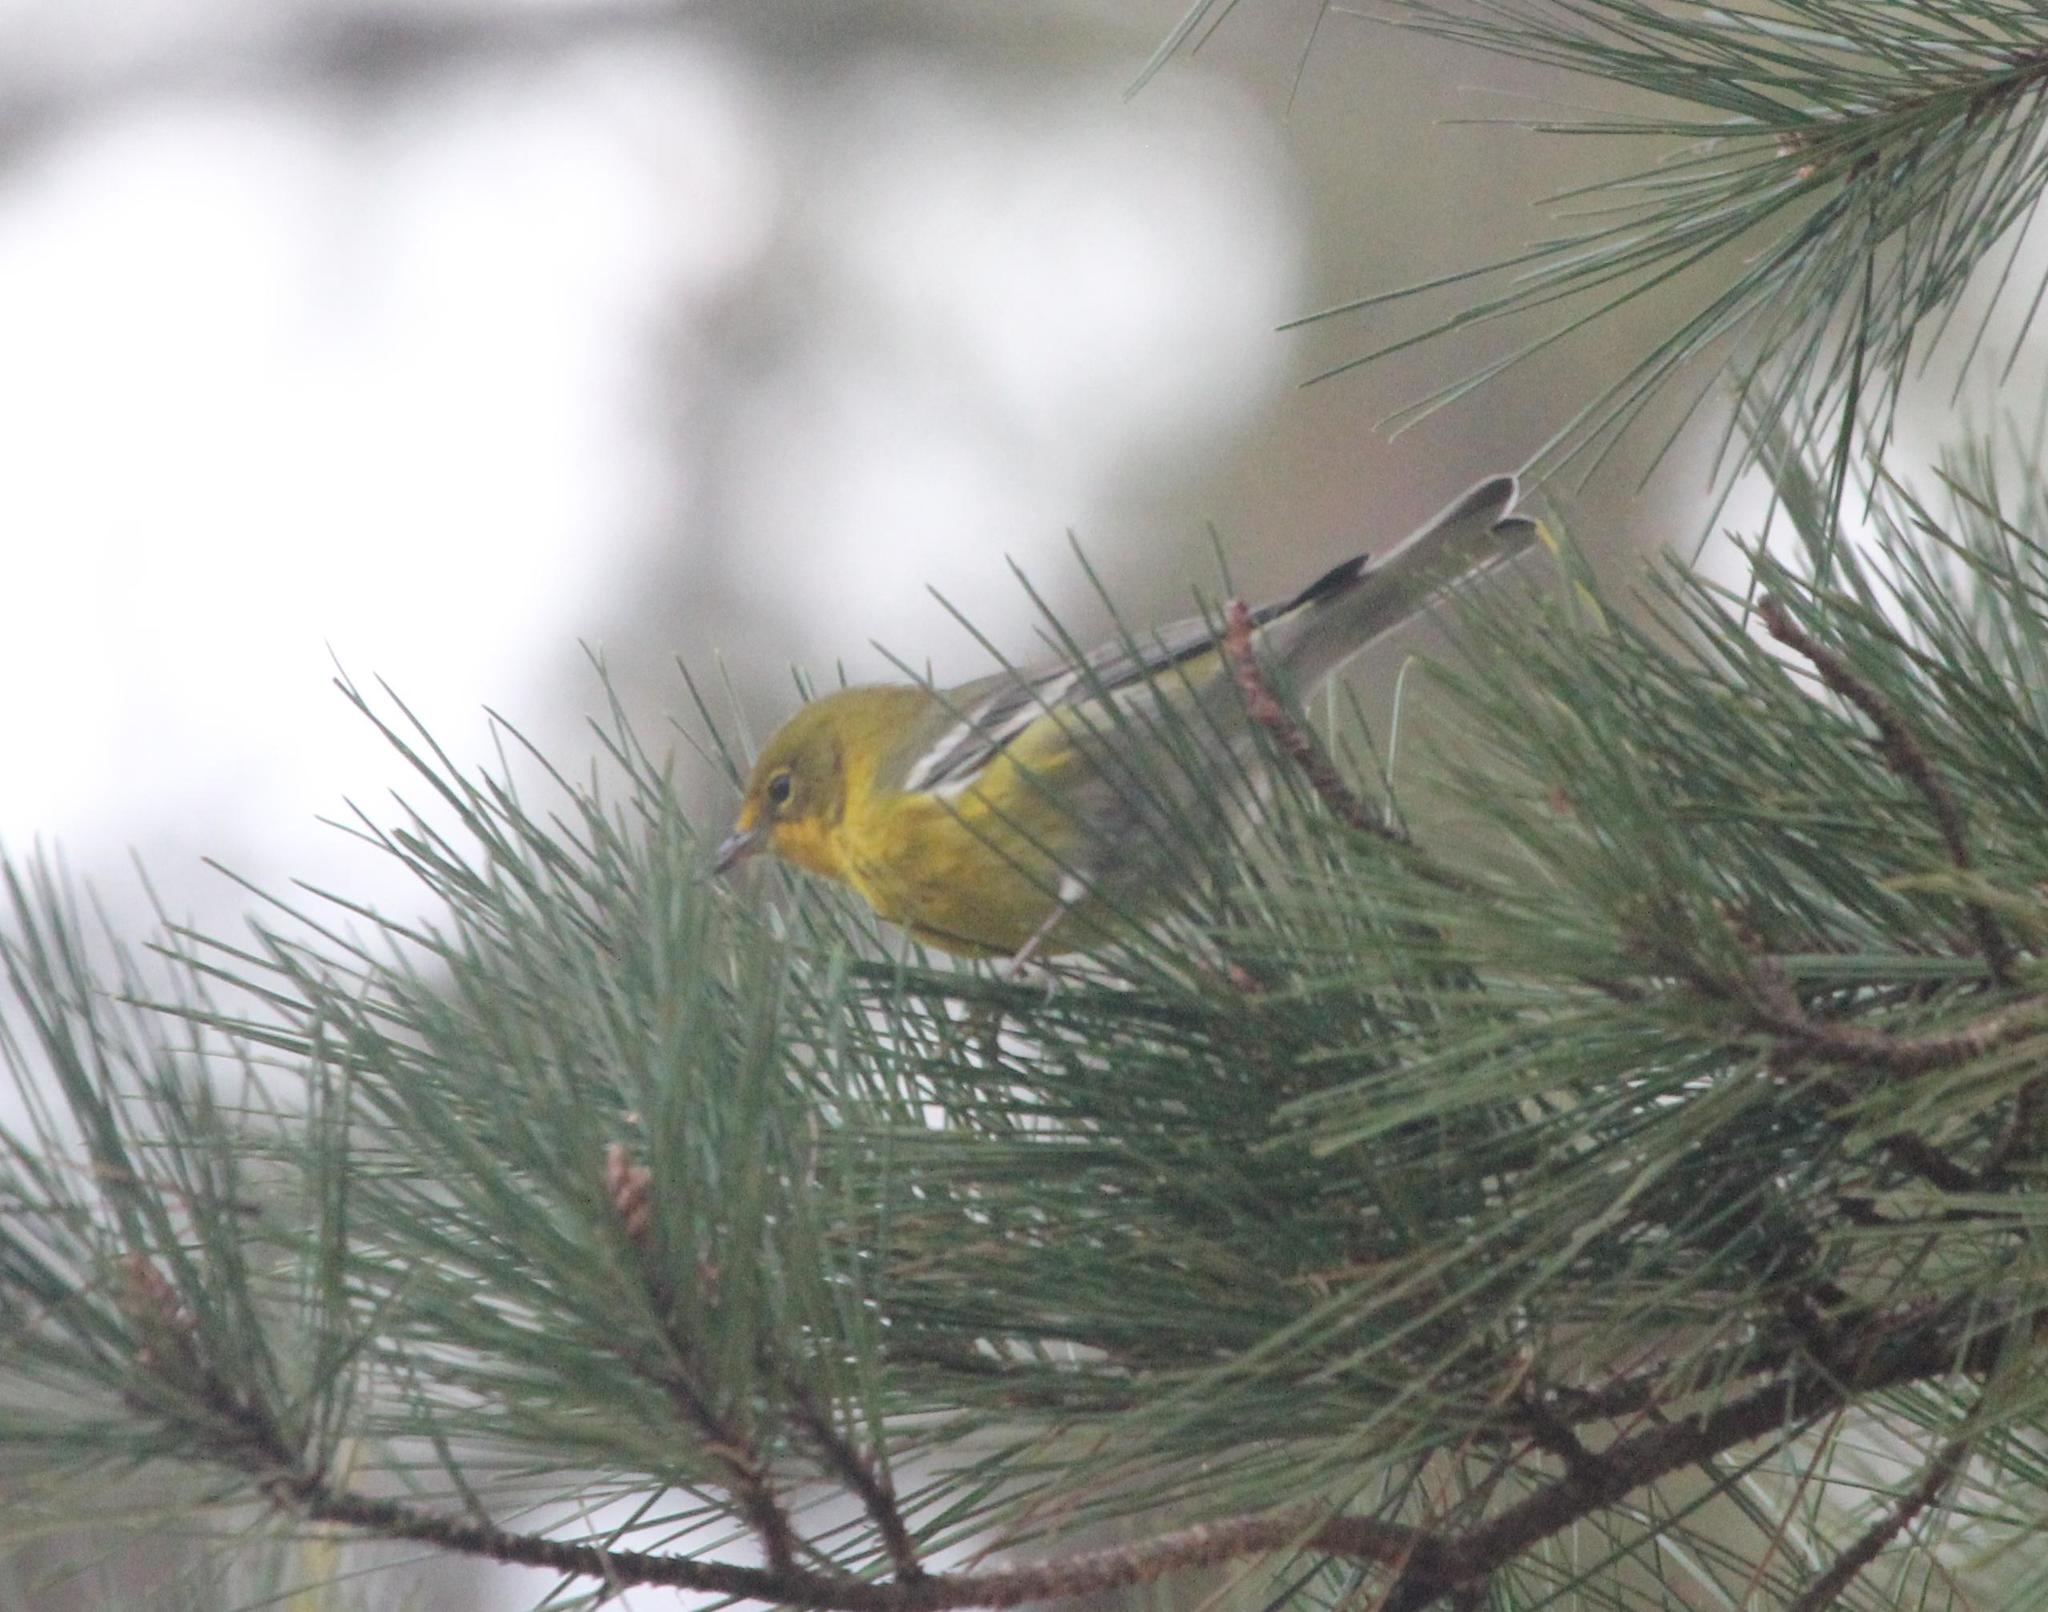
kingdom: Animalia
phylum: Chordata
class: Aves
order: Passeriformes
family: Parulidae
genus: Setophaga
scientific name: Setophaga pinus
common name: Pine warbler
